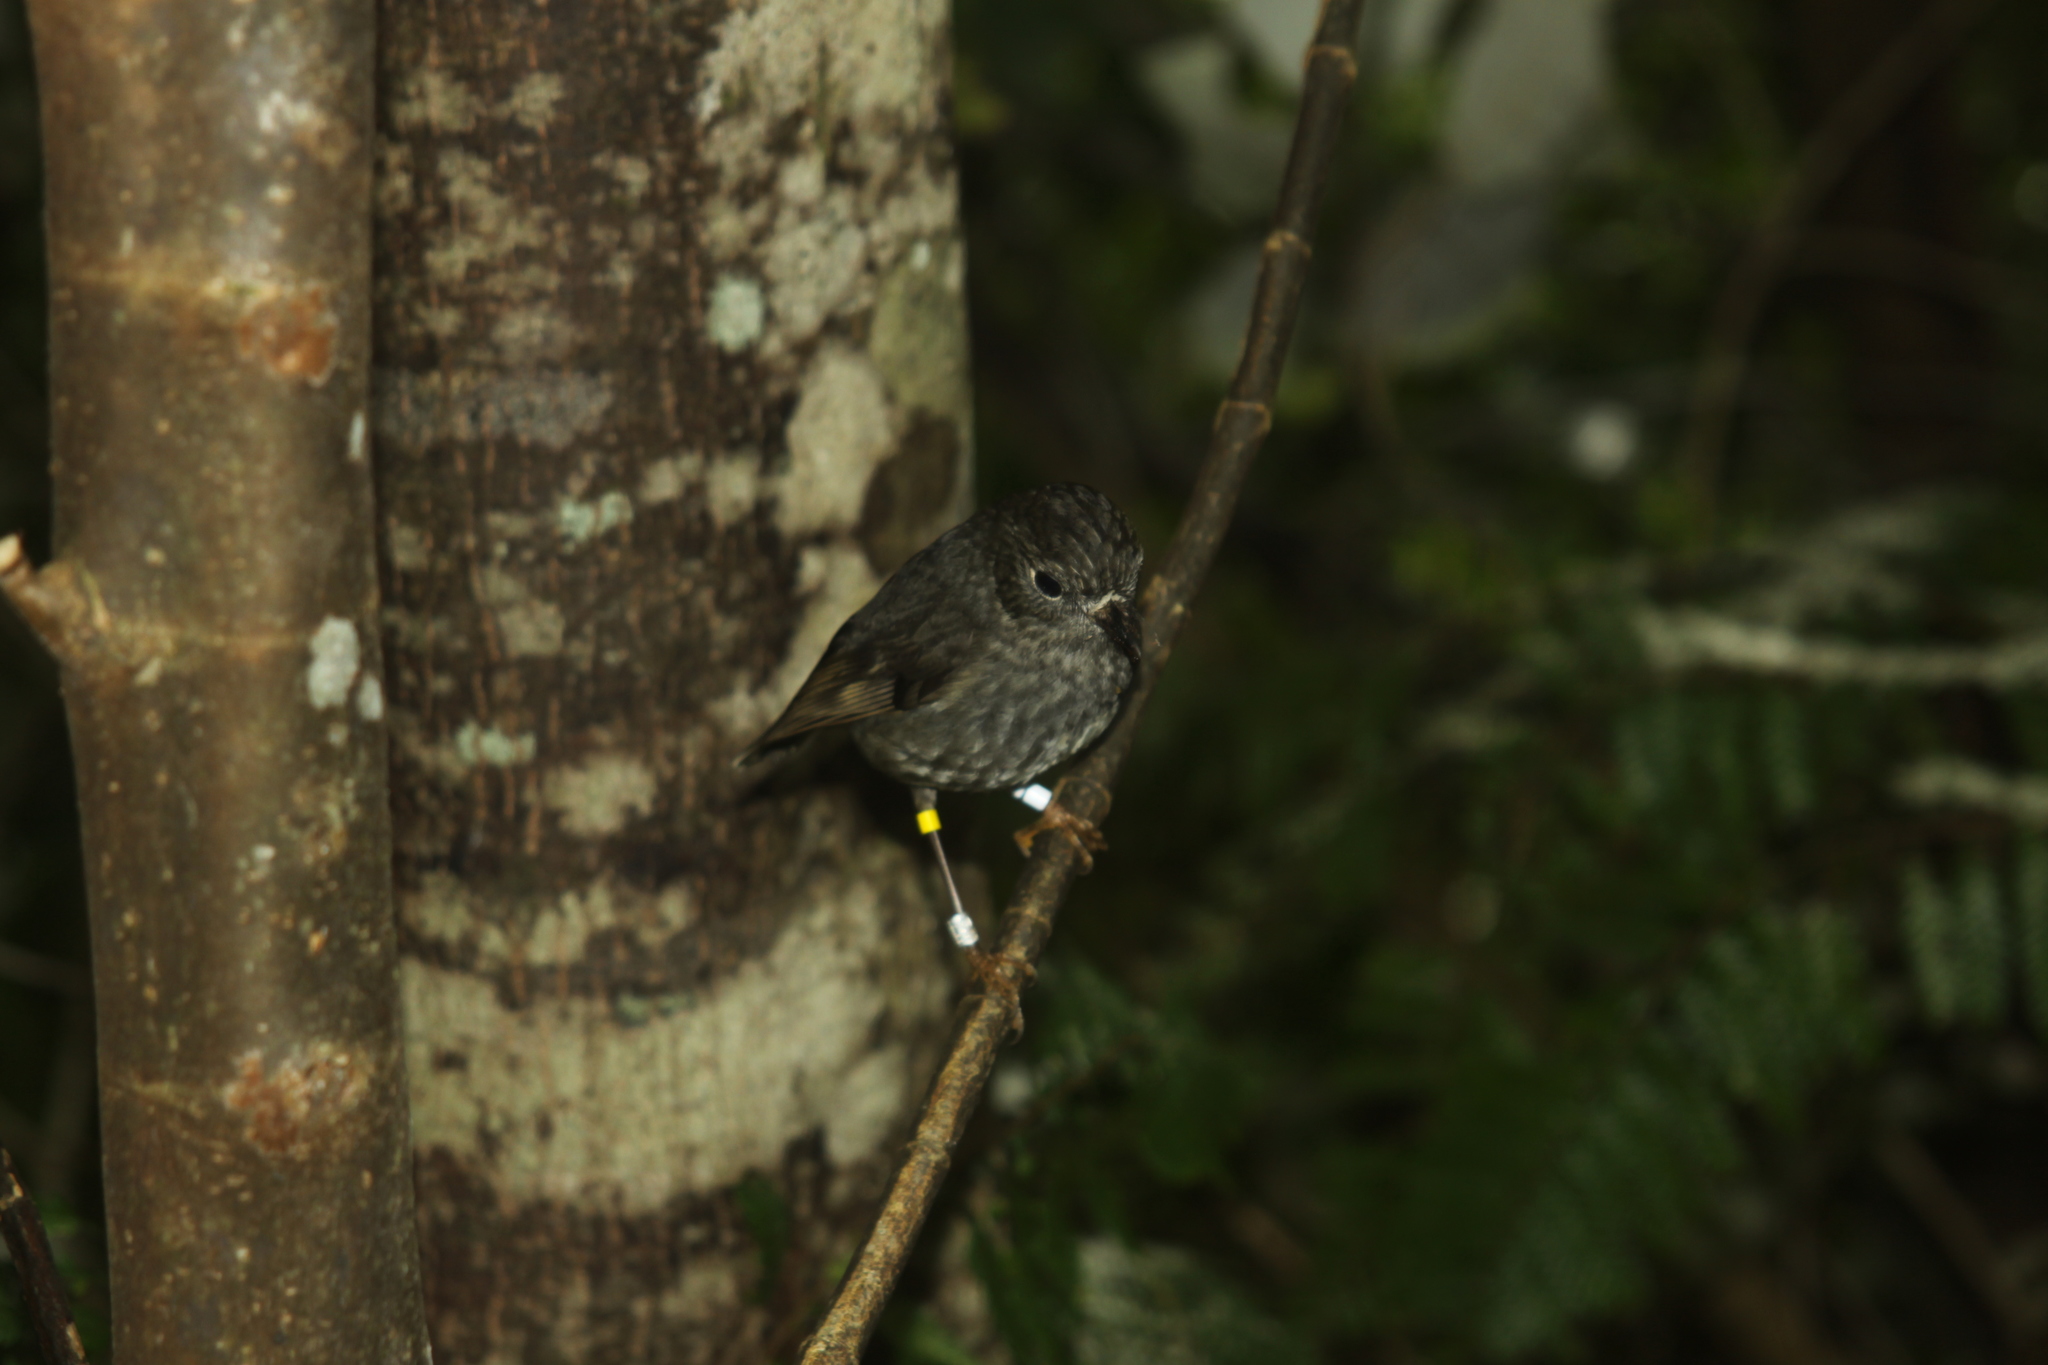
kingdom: Animalia
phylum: Chordata
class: Aves
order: Passeriformes
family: Petroicidae
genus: Petroica
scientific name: Petroica australis
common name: New zealand robin
